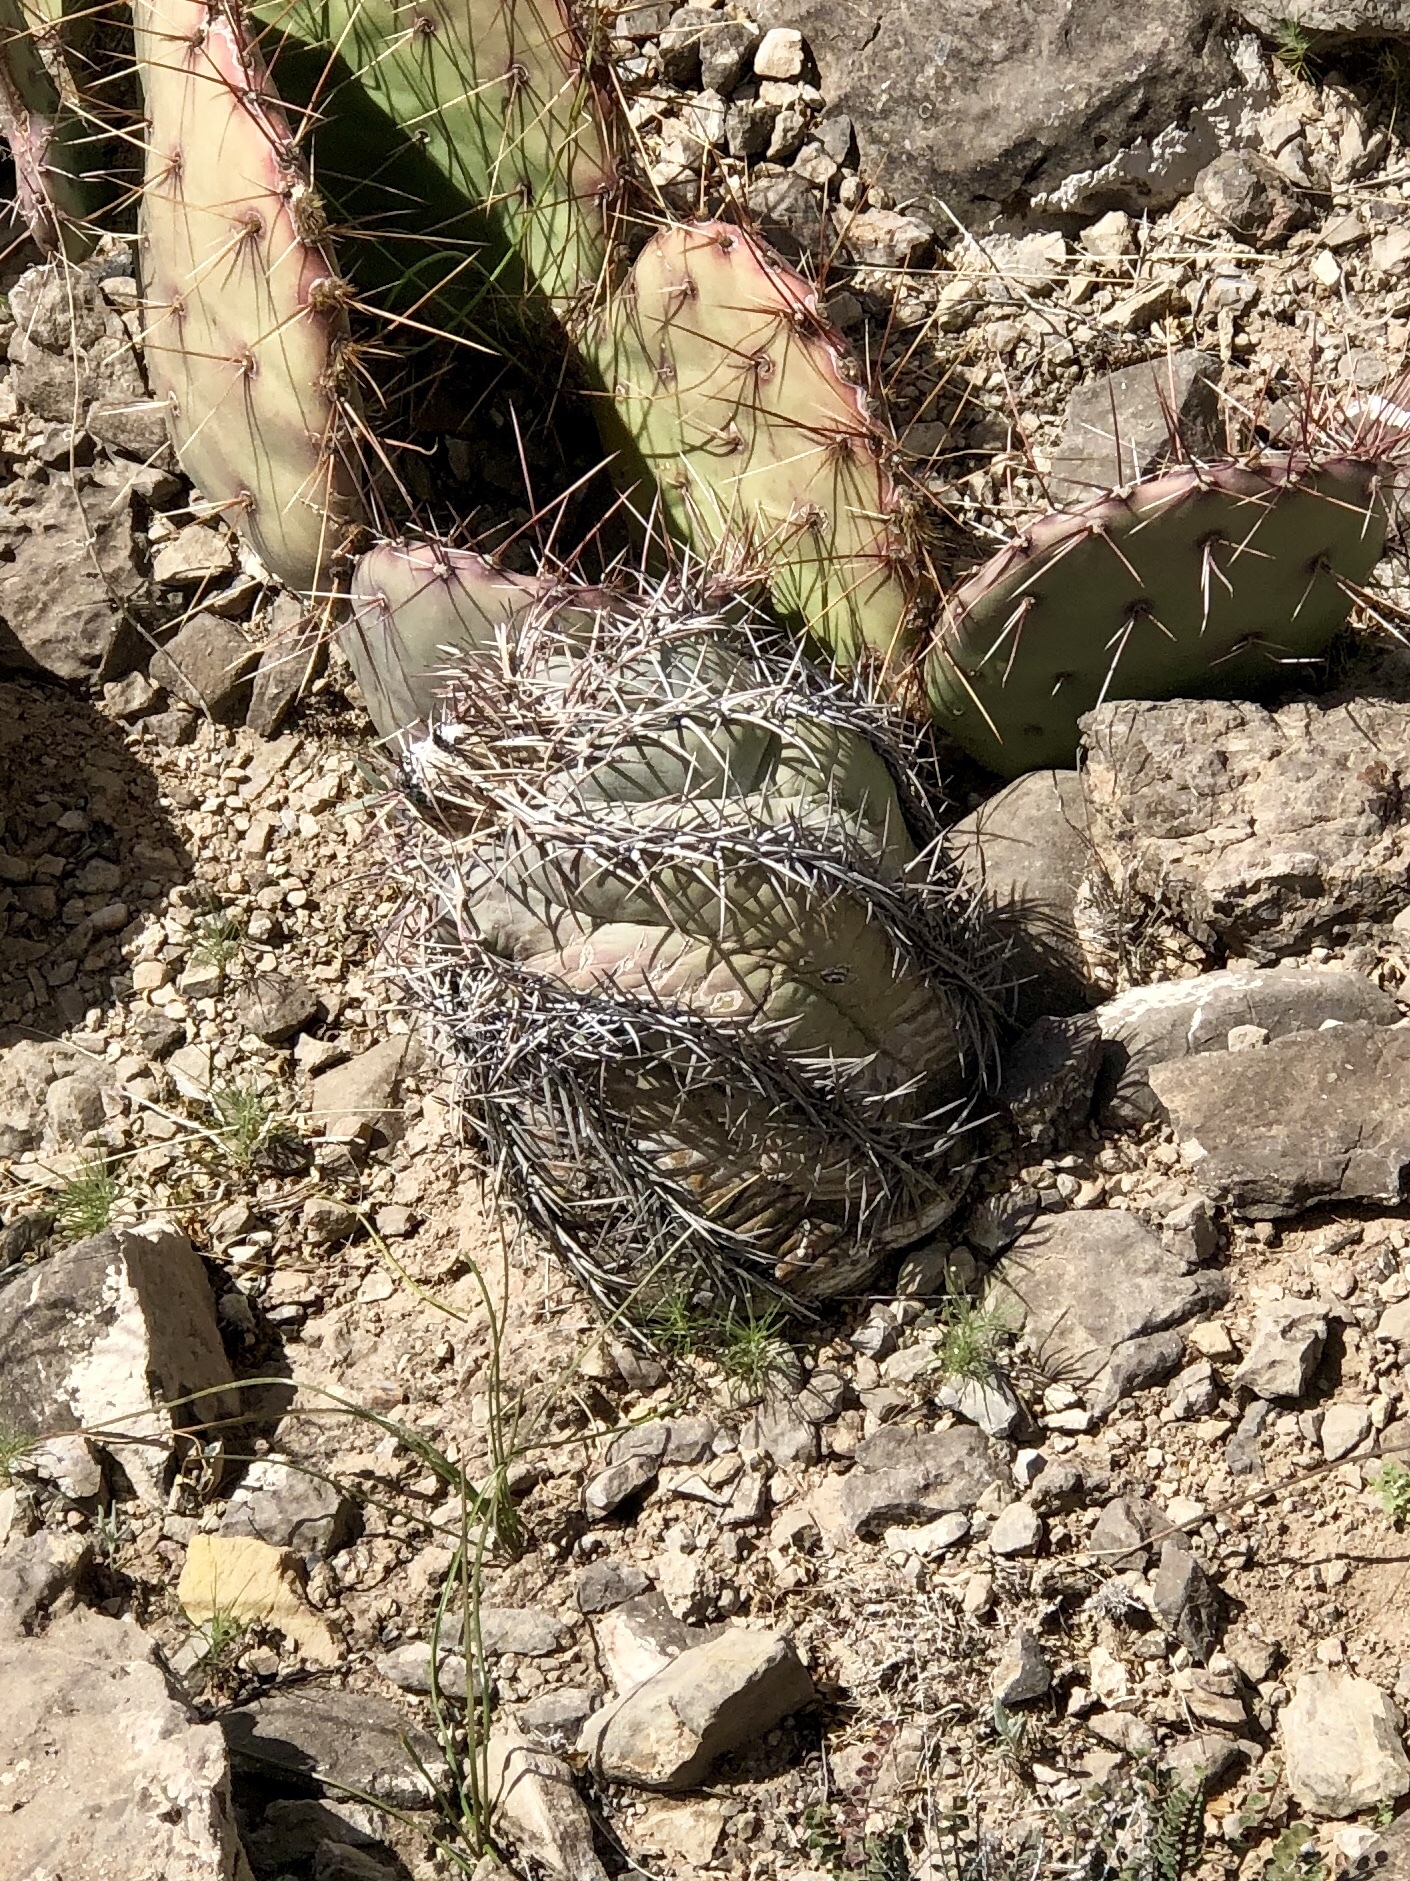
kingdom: Plantae
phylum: Tracheophyta
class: Magnoliopsida
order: Caryophyllales
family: Cactaceae
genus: Echinocactus
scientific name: Echinocactus horizonthalonius
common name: Devilshead
